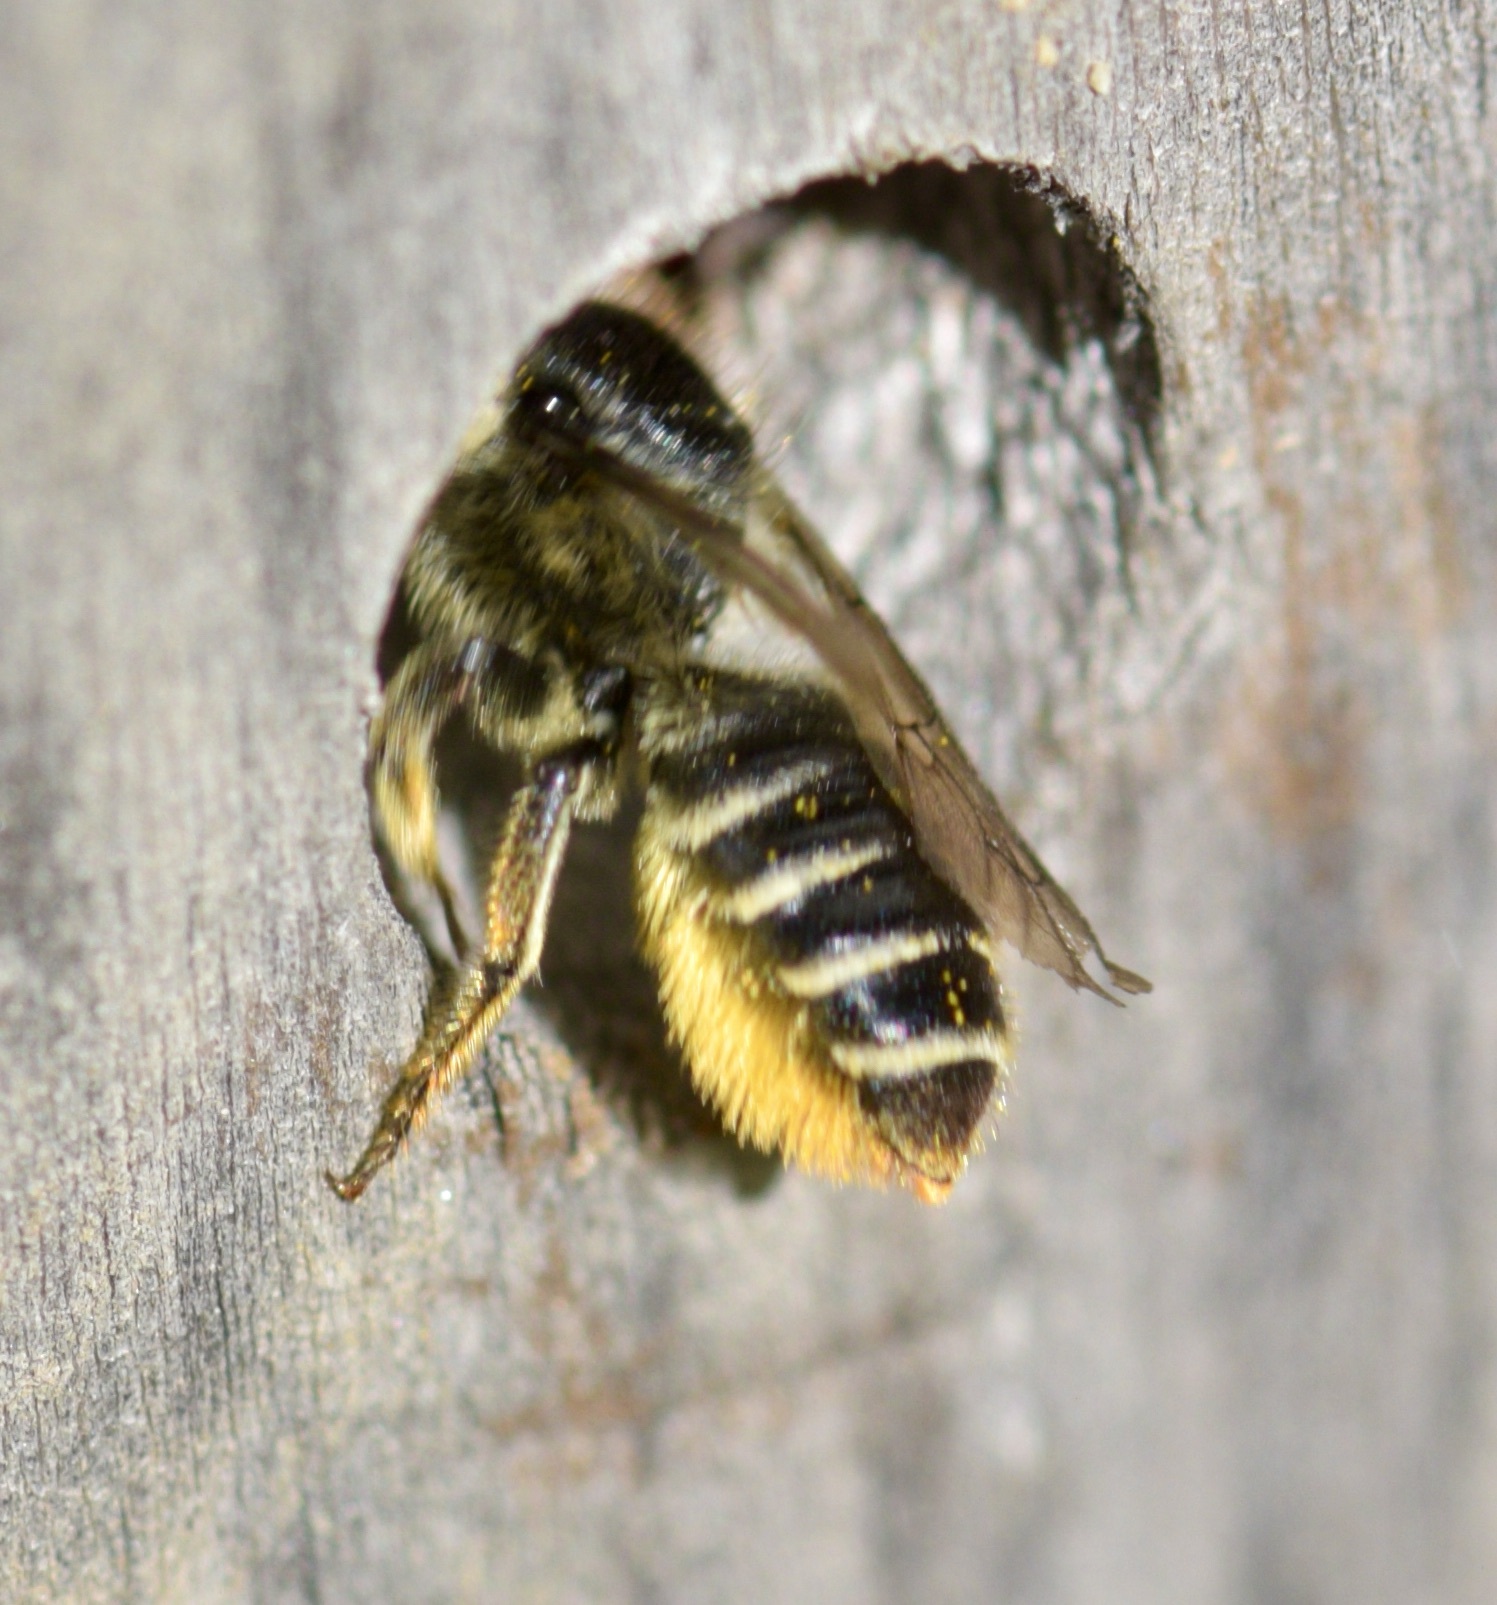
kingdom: Animalia
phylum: Arthropoda
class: Insecta
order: Hymenoptera
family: Megachilidae
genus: Megachile
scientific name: Megachile relativa
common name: Golden-tailed leafcutter
